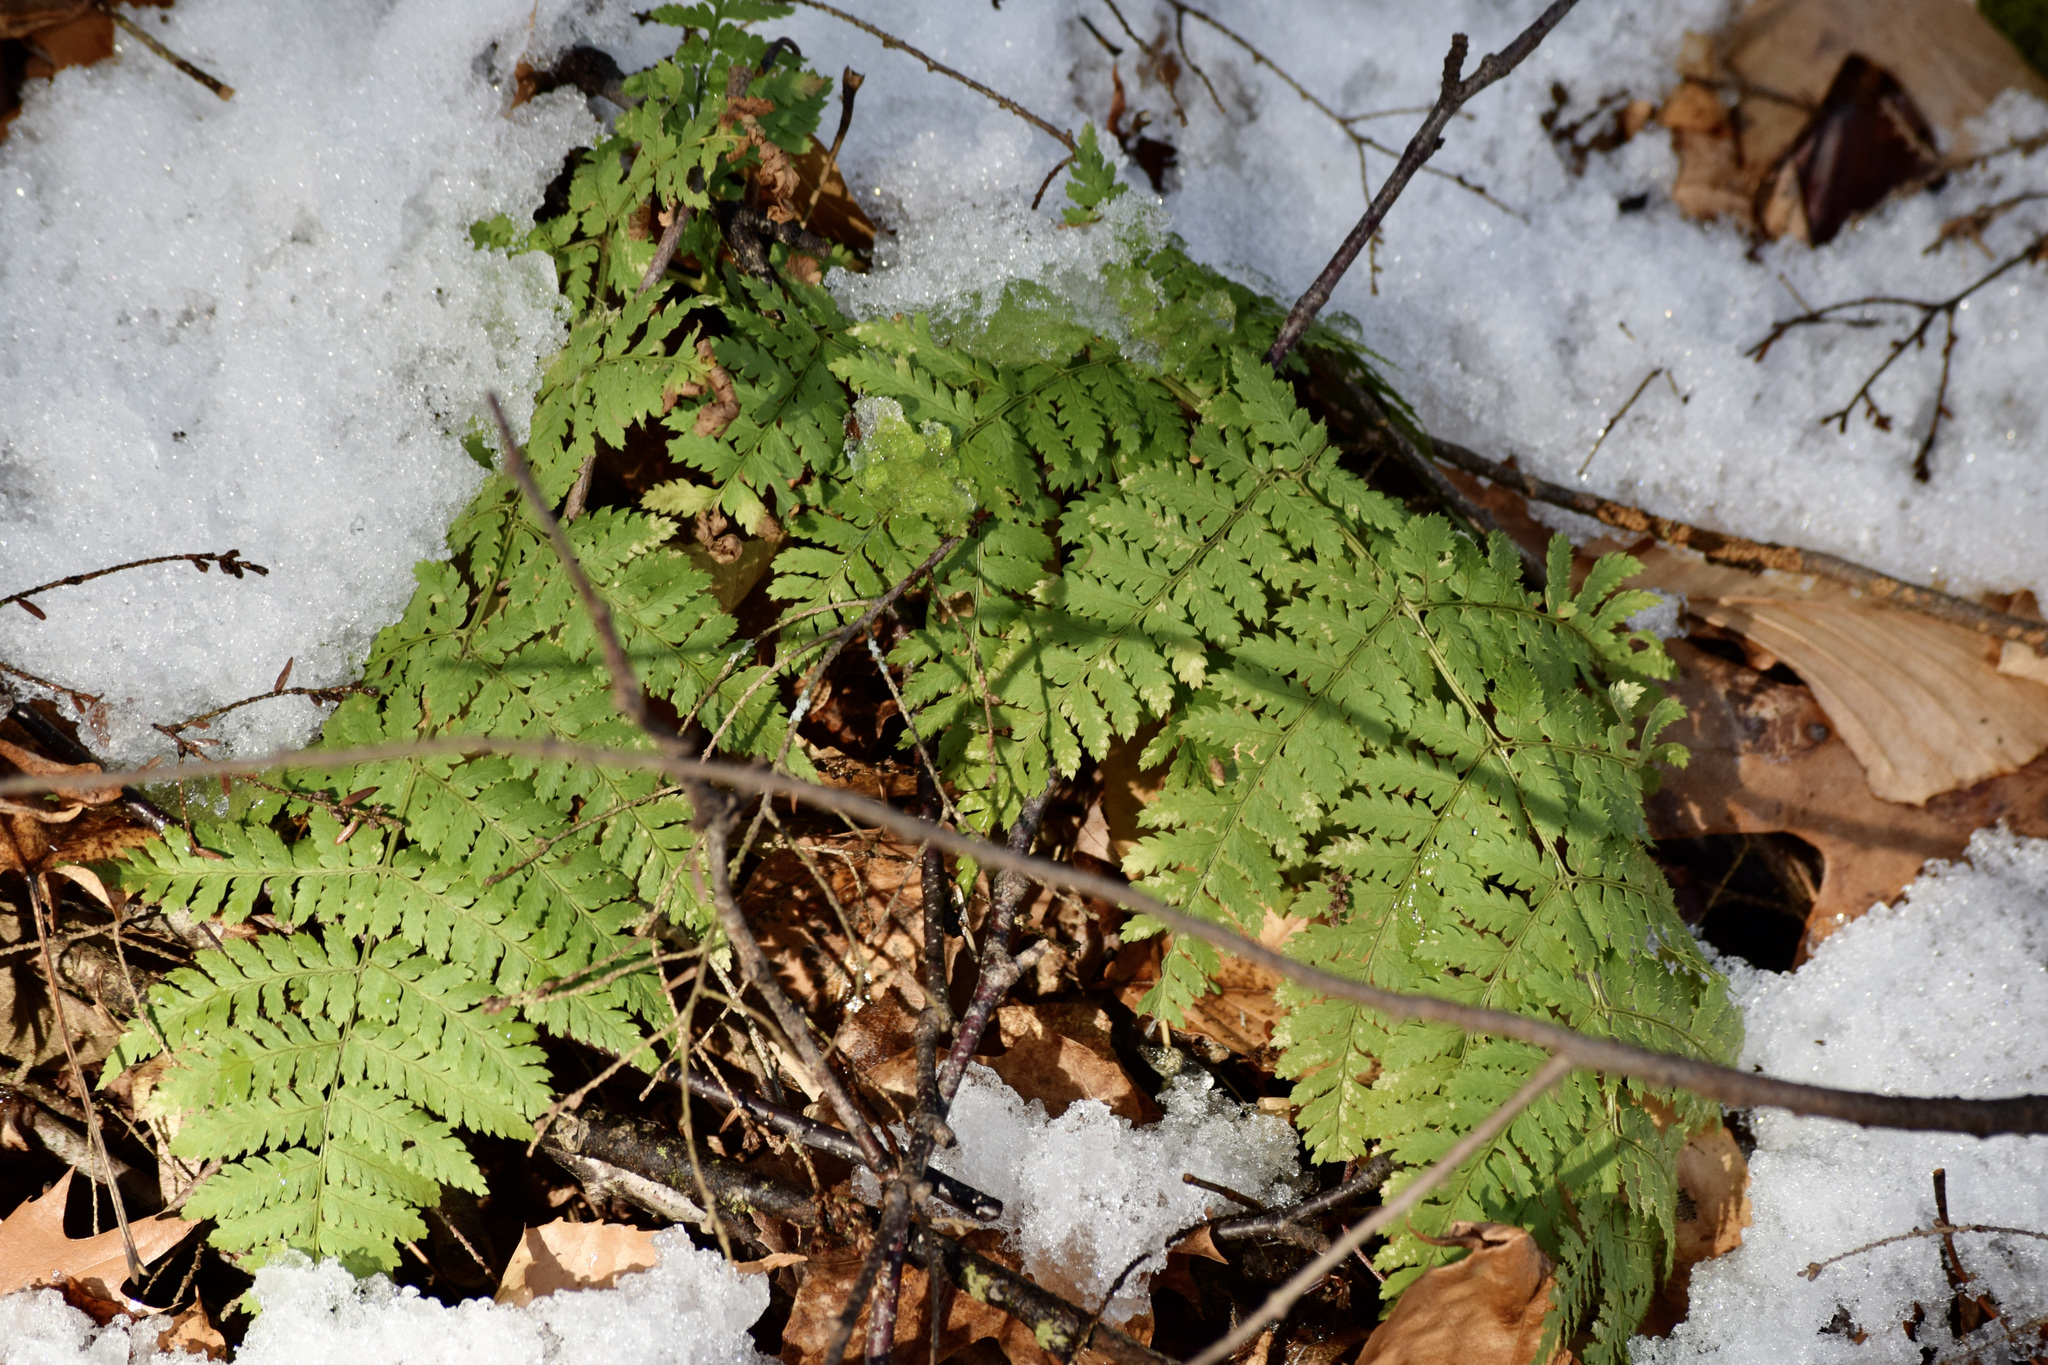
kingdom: Plantae
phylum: Tracheophyta
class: Polypodiopsida
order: Polypodiales
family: Dryopteridaceae
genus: Dryopteris
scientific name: Dryopteris intermedia
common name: Evergreen wood fern
